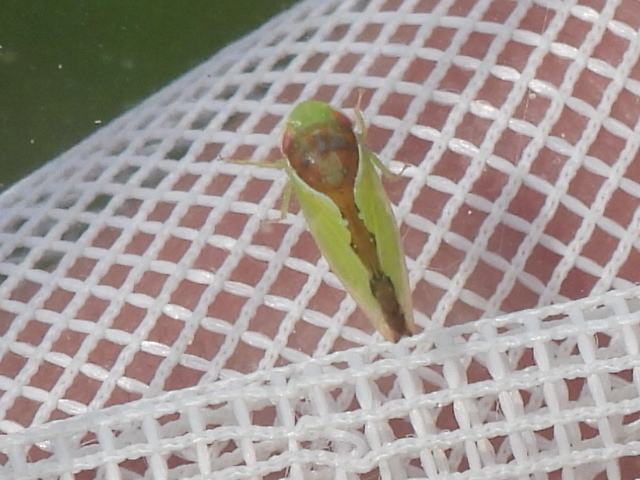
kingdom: Animalia
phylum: Arthropoda
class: Insecta
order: Hemiptera
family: Cicadellidae
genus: Omansobara ing
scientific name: Omansobara ing Omansobara palliolata
